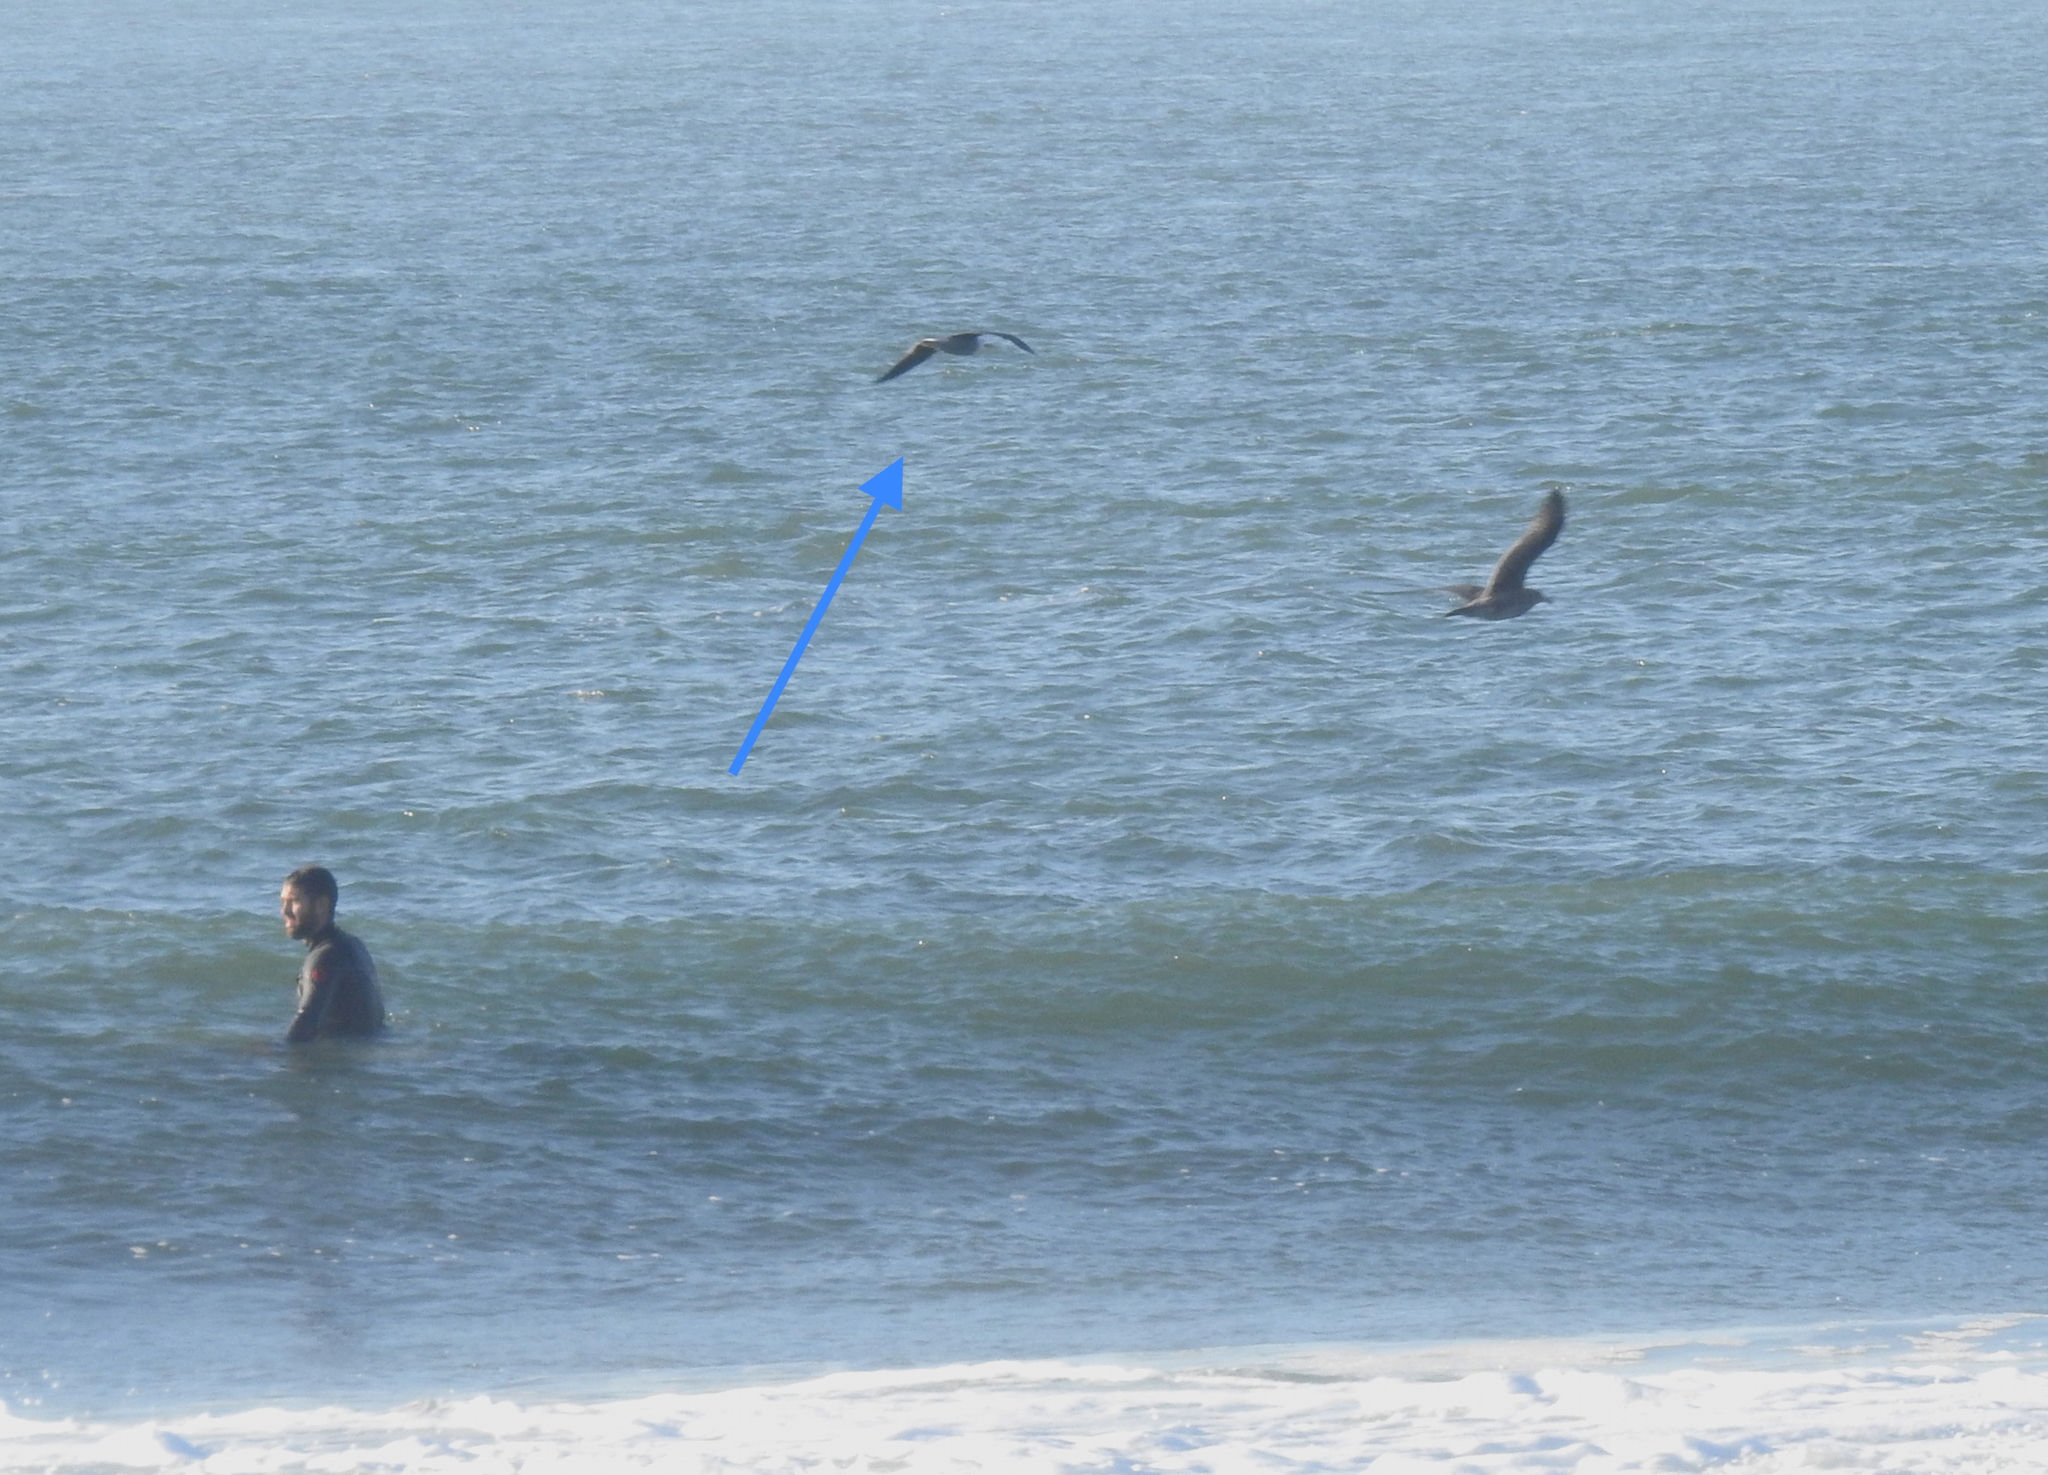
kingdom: Animalia
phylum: Chordata
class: Aves
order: Charadriiformes
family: Laridae
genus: Larus
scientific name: Larus heermanni
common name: Heermann's gull
